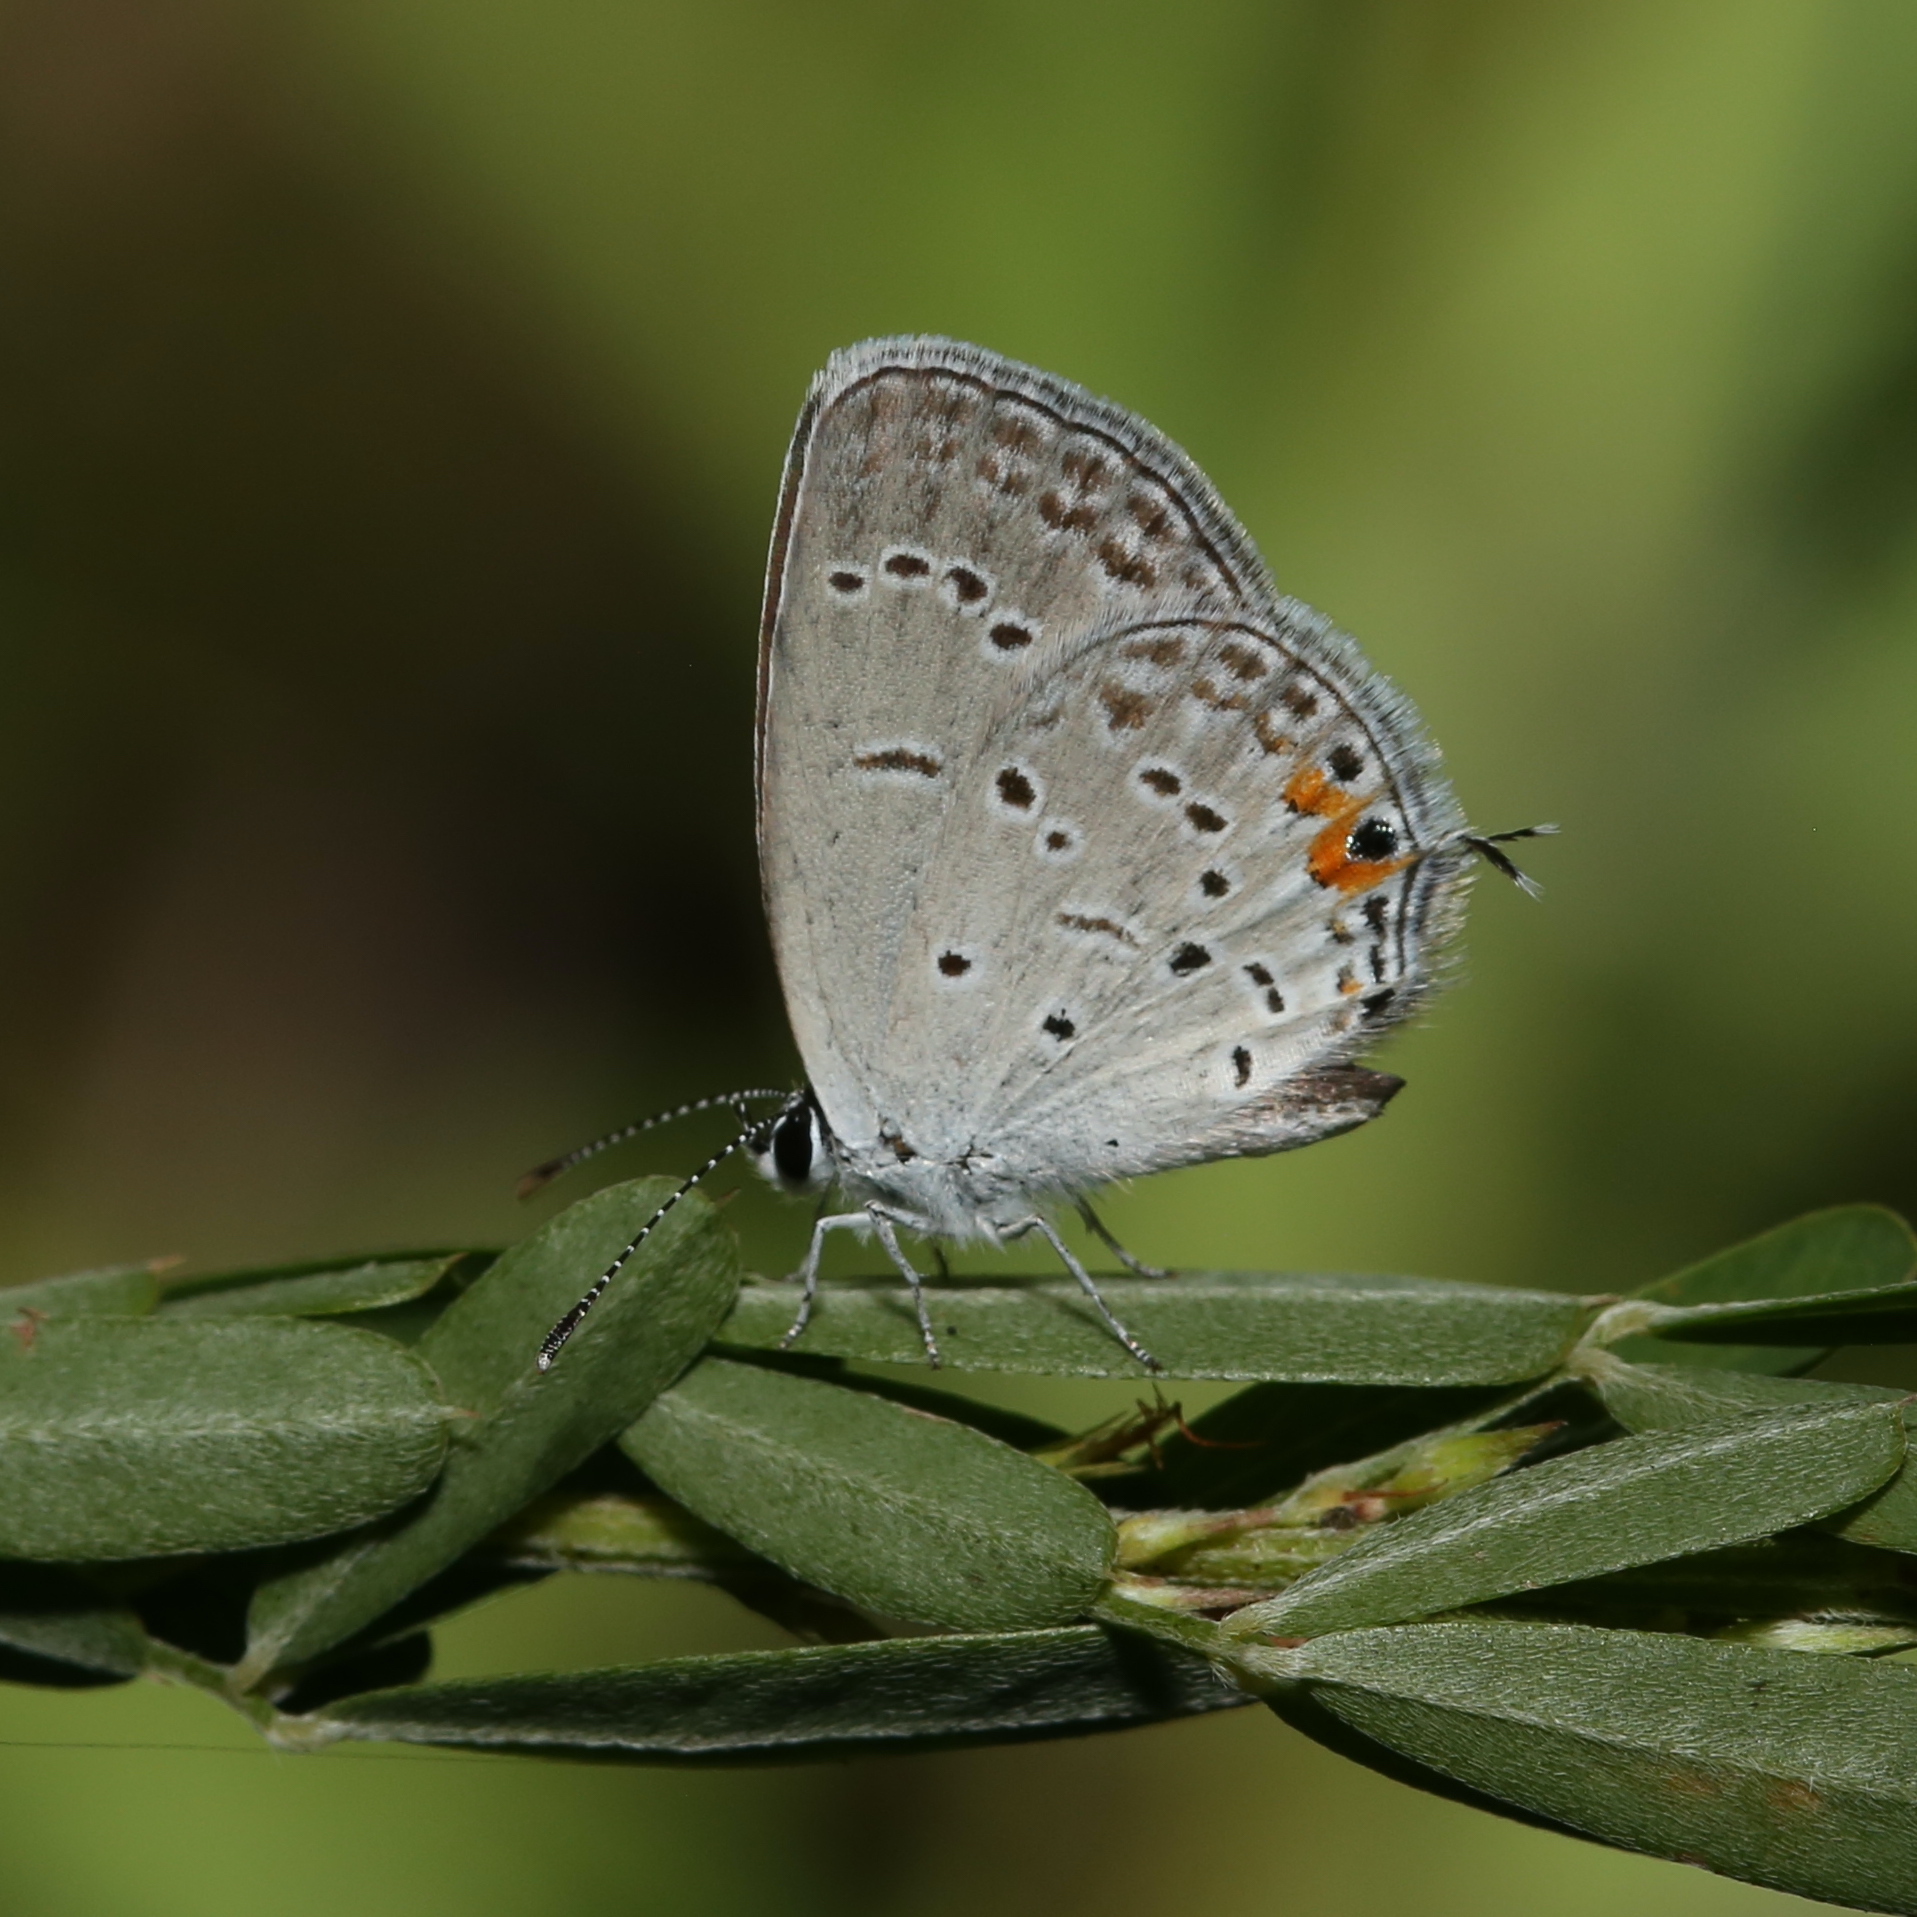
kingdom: Animalia
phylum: Arthropoda
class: Insecta
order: Lepidoptera
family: Lycaenidae
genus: Elkalyce
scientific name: Elkalyce comyntas
